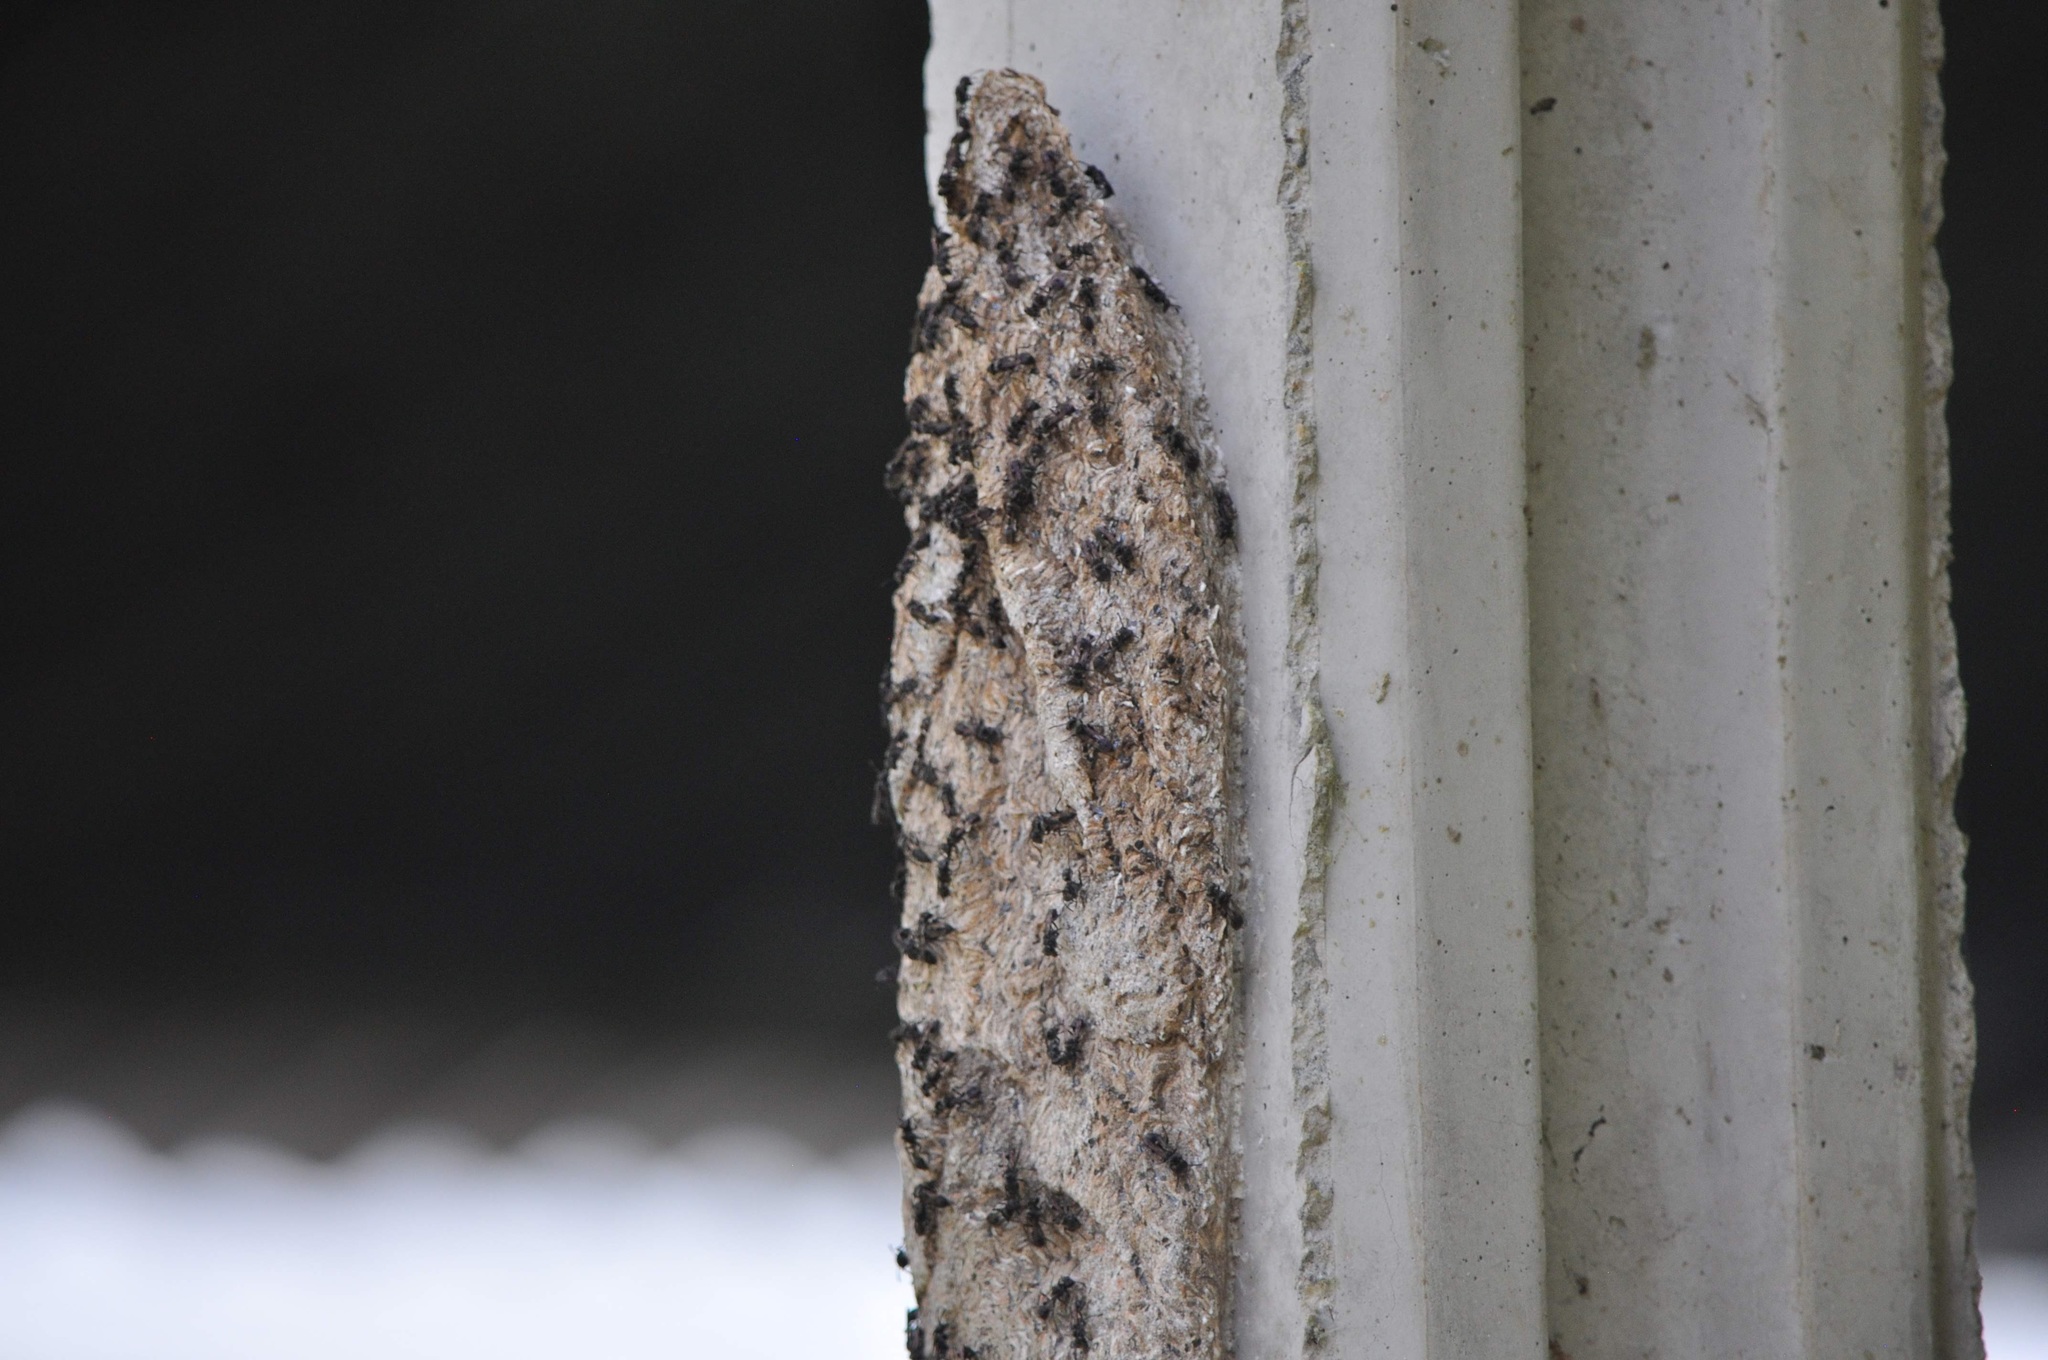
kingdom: Animalia
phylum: Arthropoda
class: Insecta
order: Hymenoptera
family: Vespidae
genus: Metapolybia
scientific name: Metapolybia
